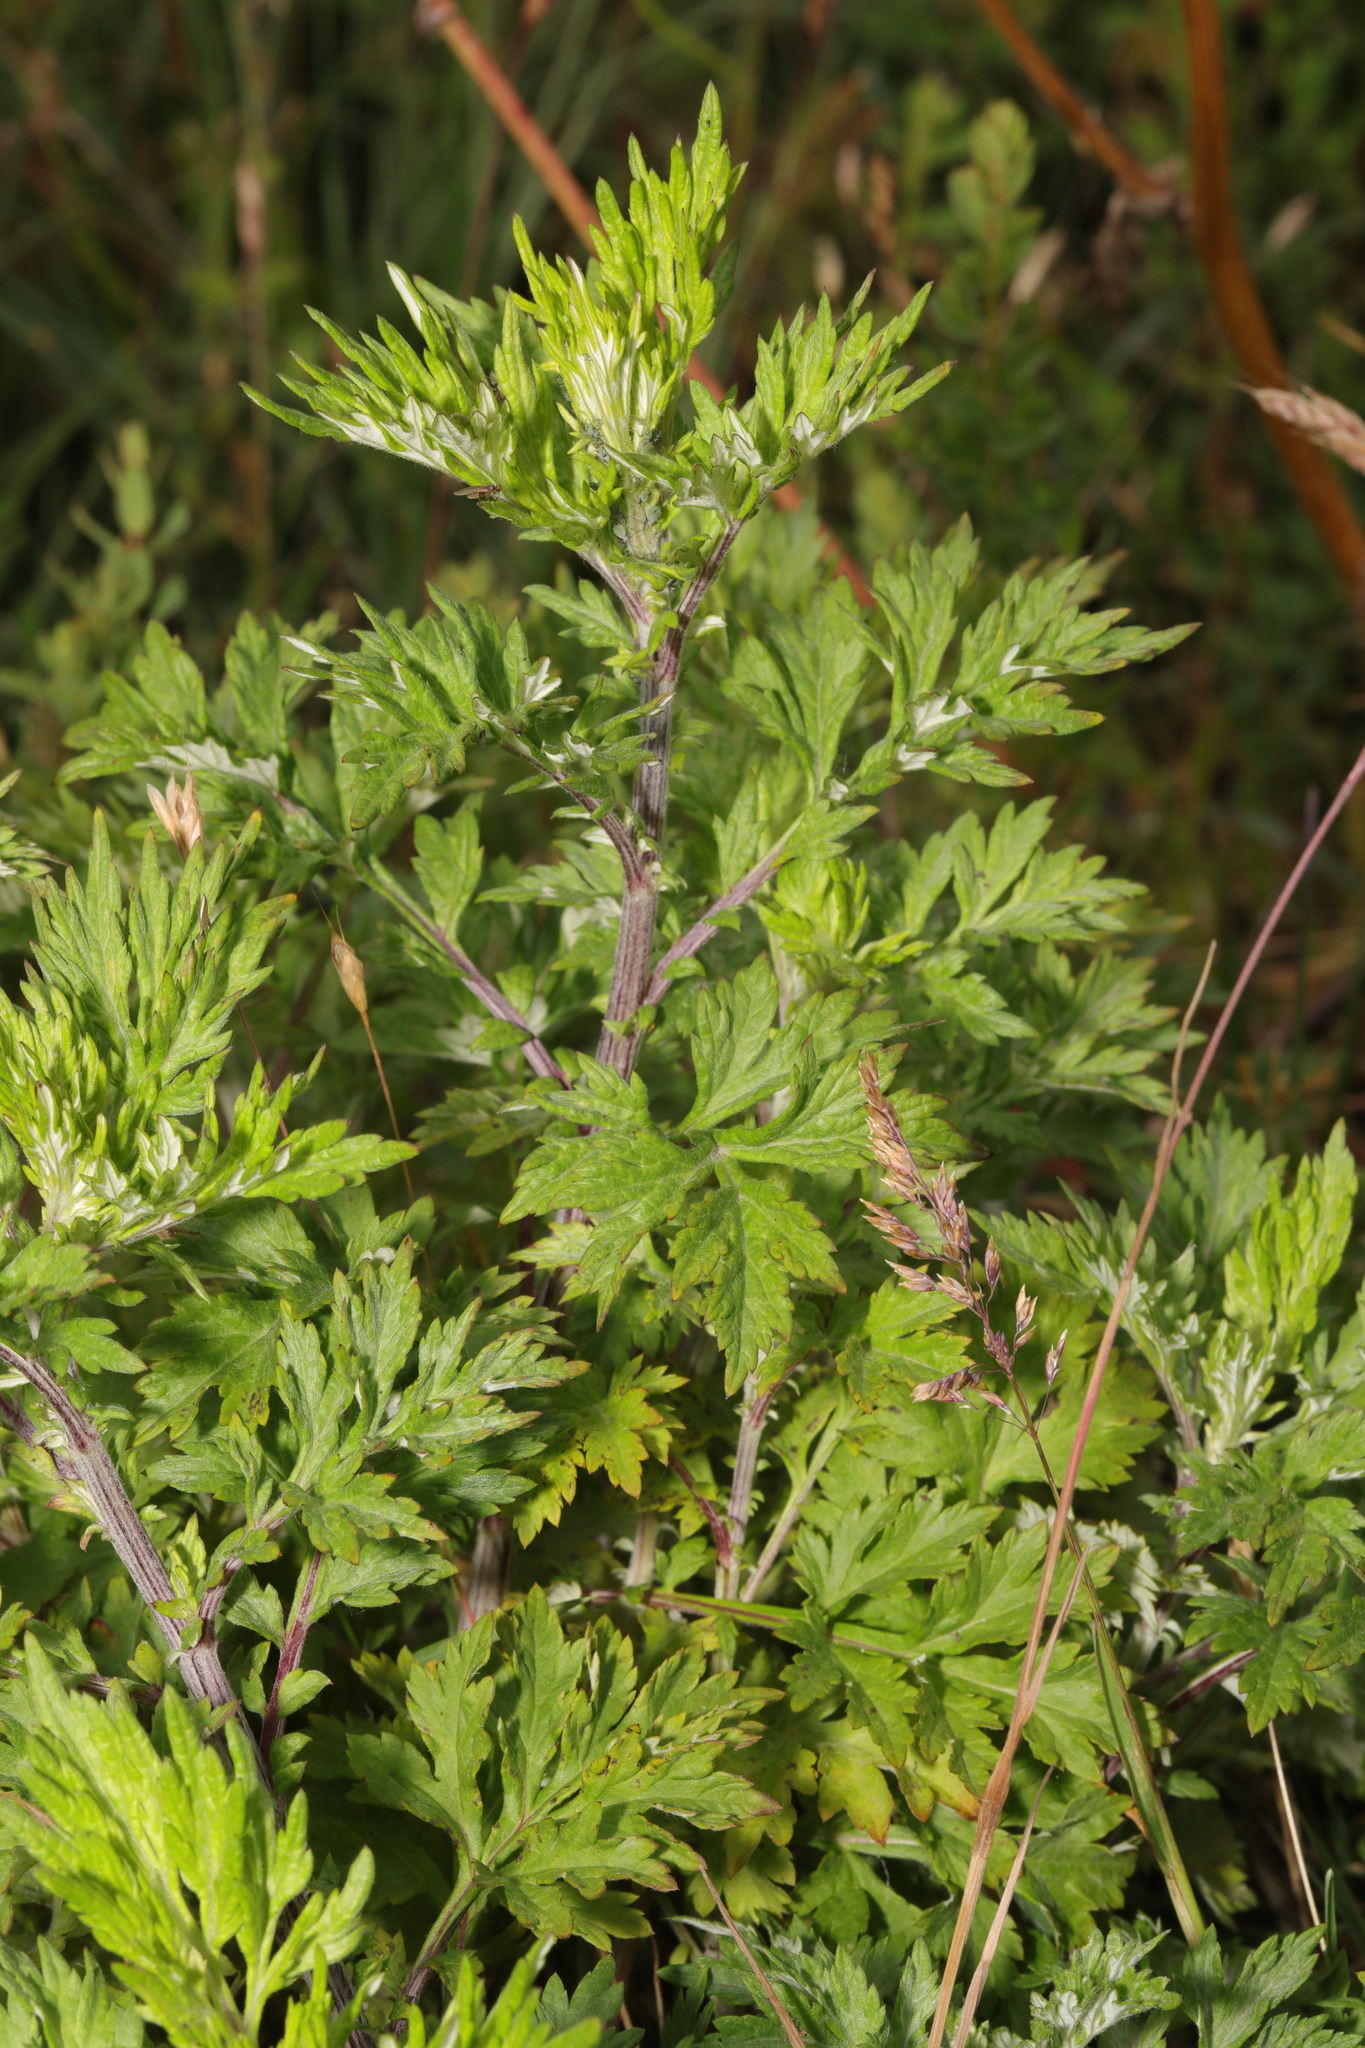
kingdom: Plantae
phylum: Tracheophyta
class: Magnoliopsida
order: Asterales
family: Asteraceae
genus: Artemisia
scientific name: Artemisia vulgaris
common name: Mugwort
